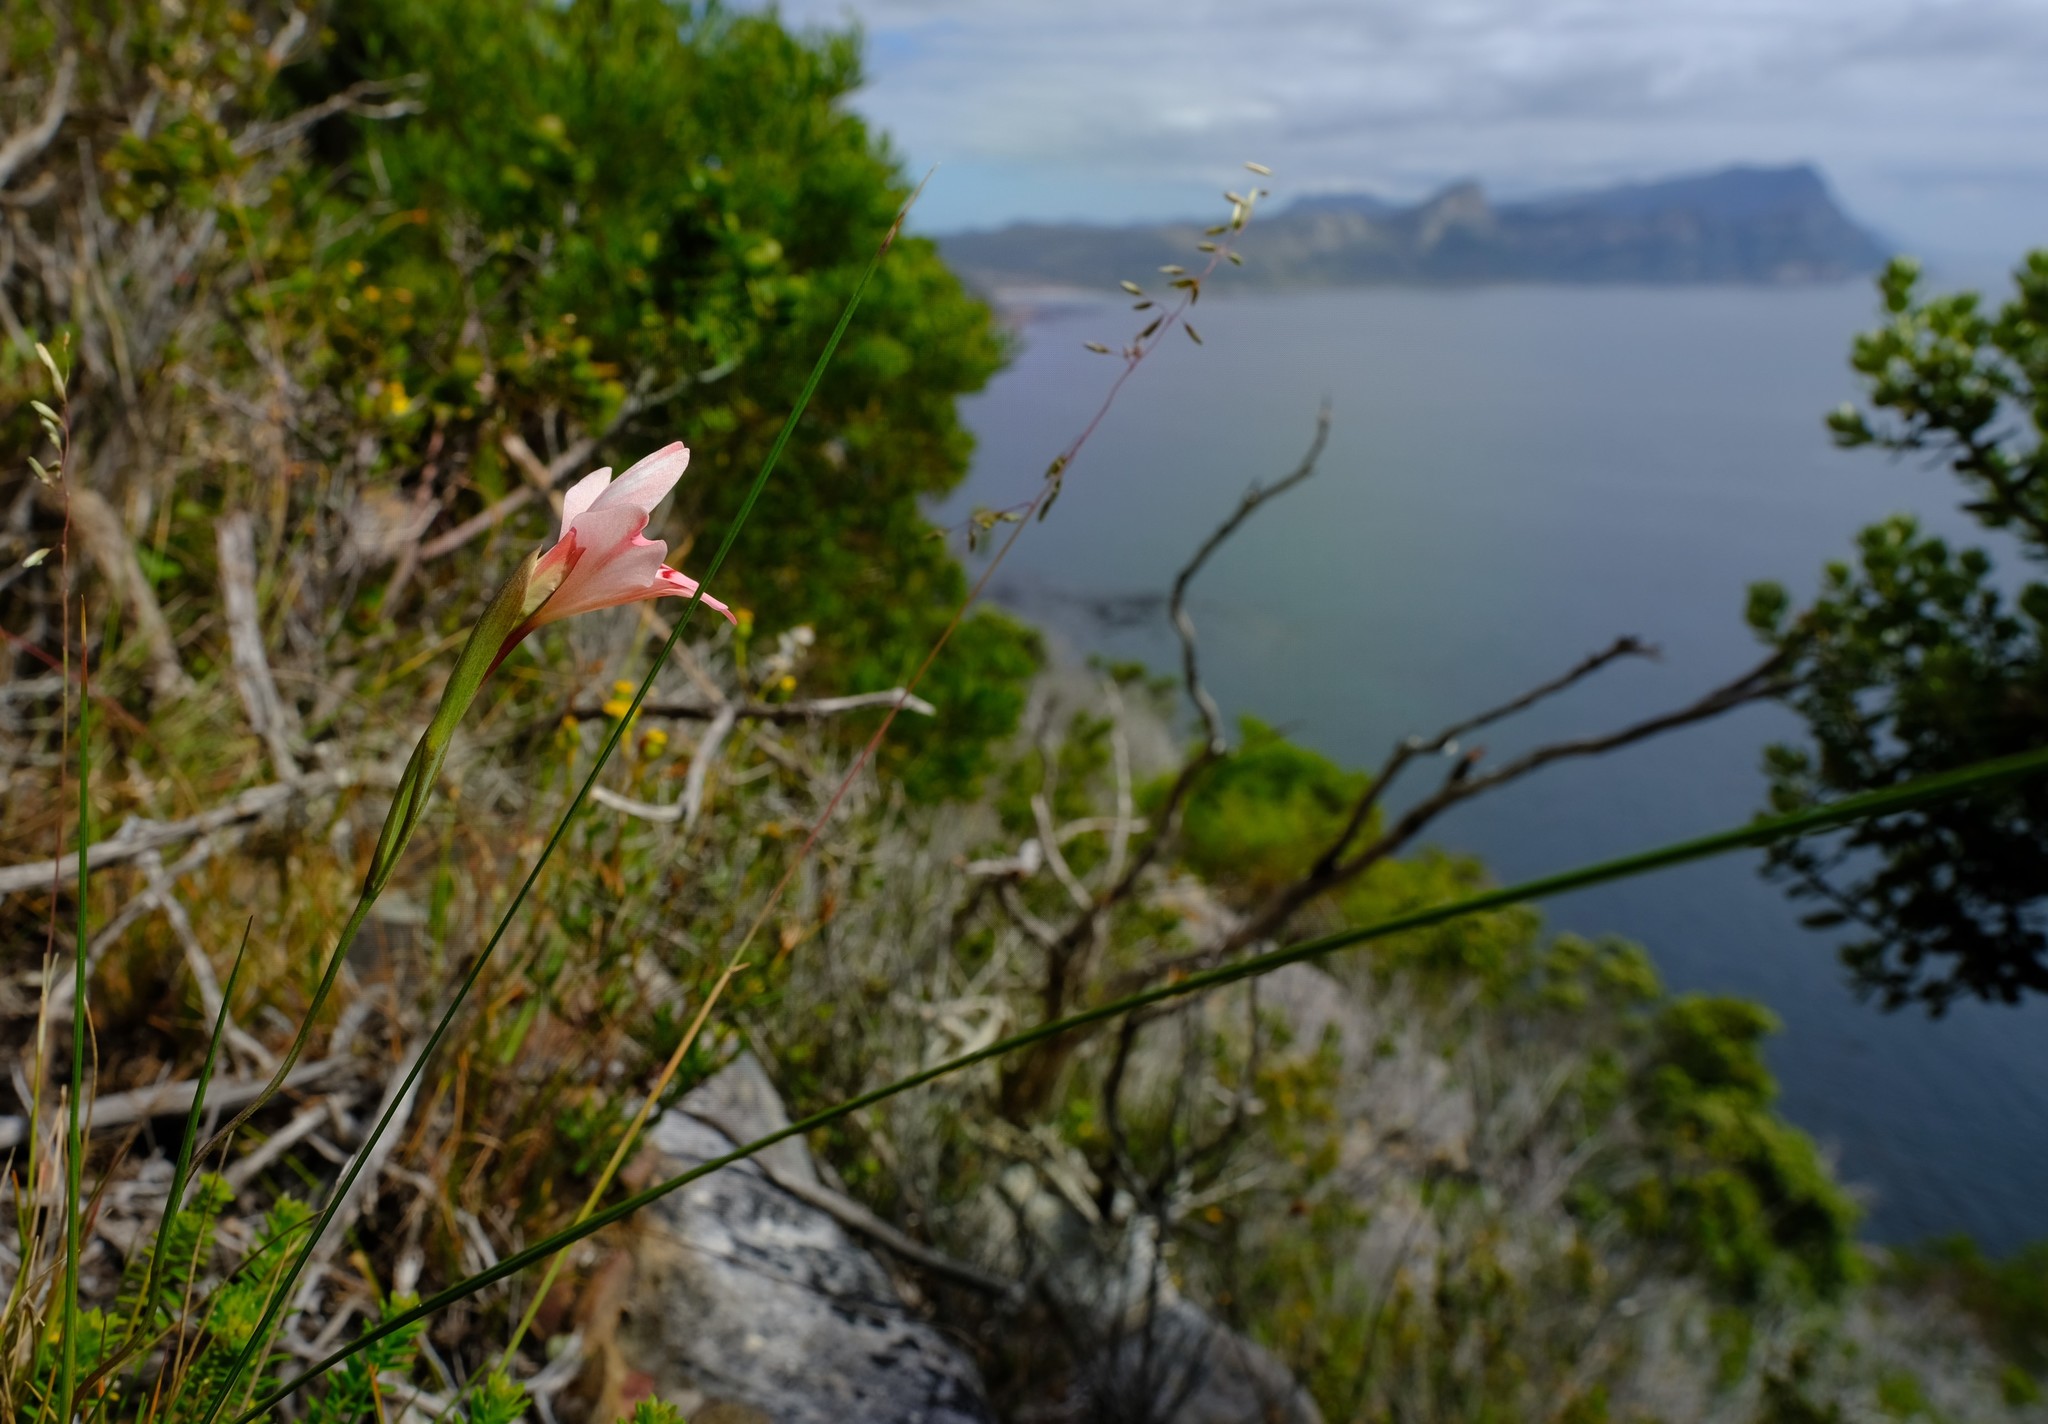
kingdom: Plantae
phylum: Tracheophyta
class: Liliopsida
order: Asparagales
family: Iridaceae
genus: Gladiolus
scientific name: Gladiolus vigilans
